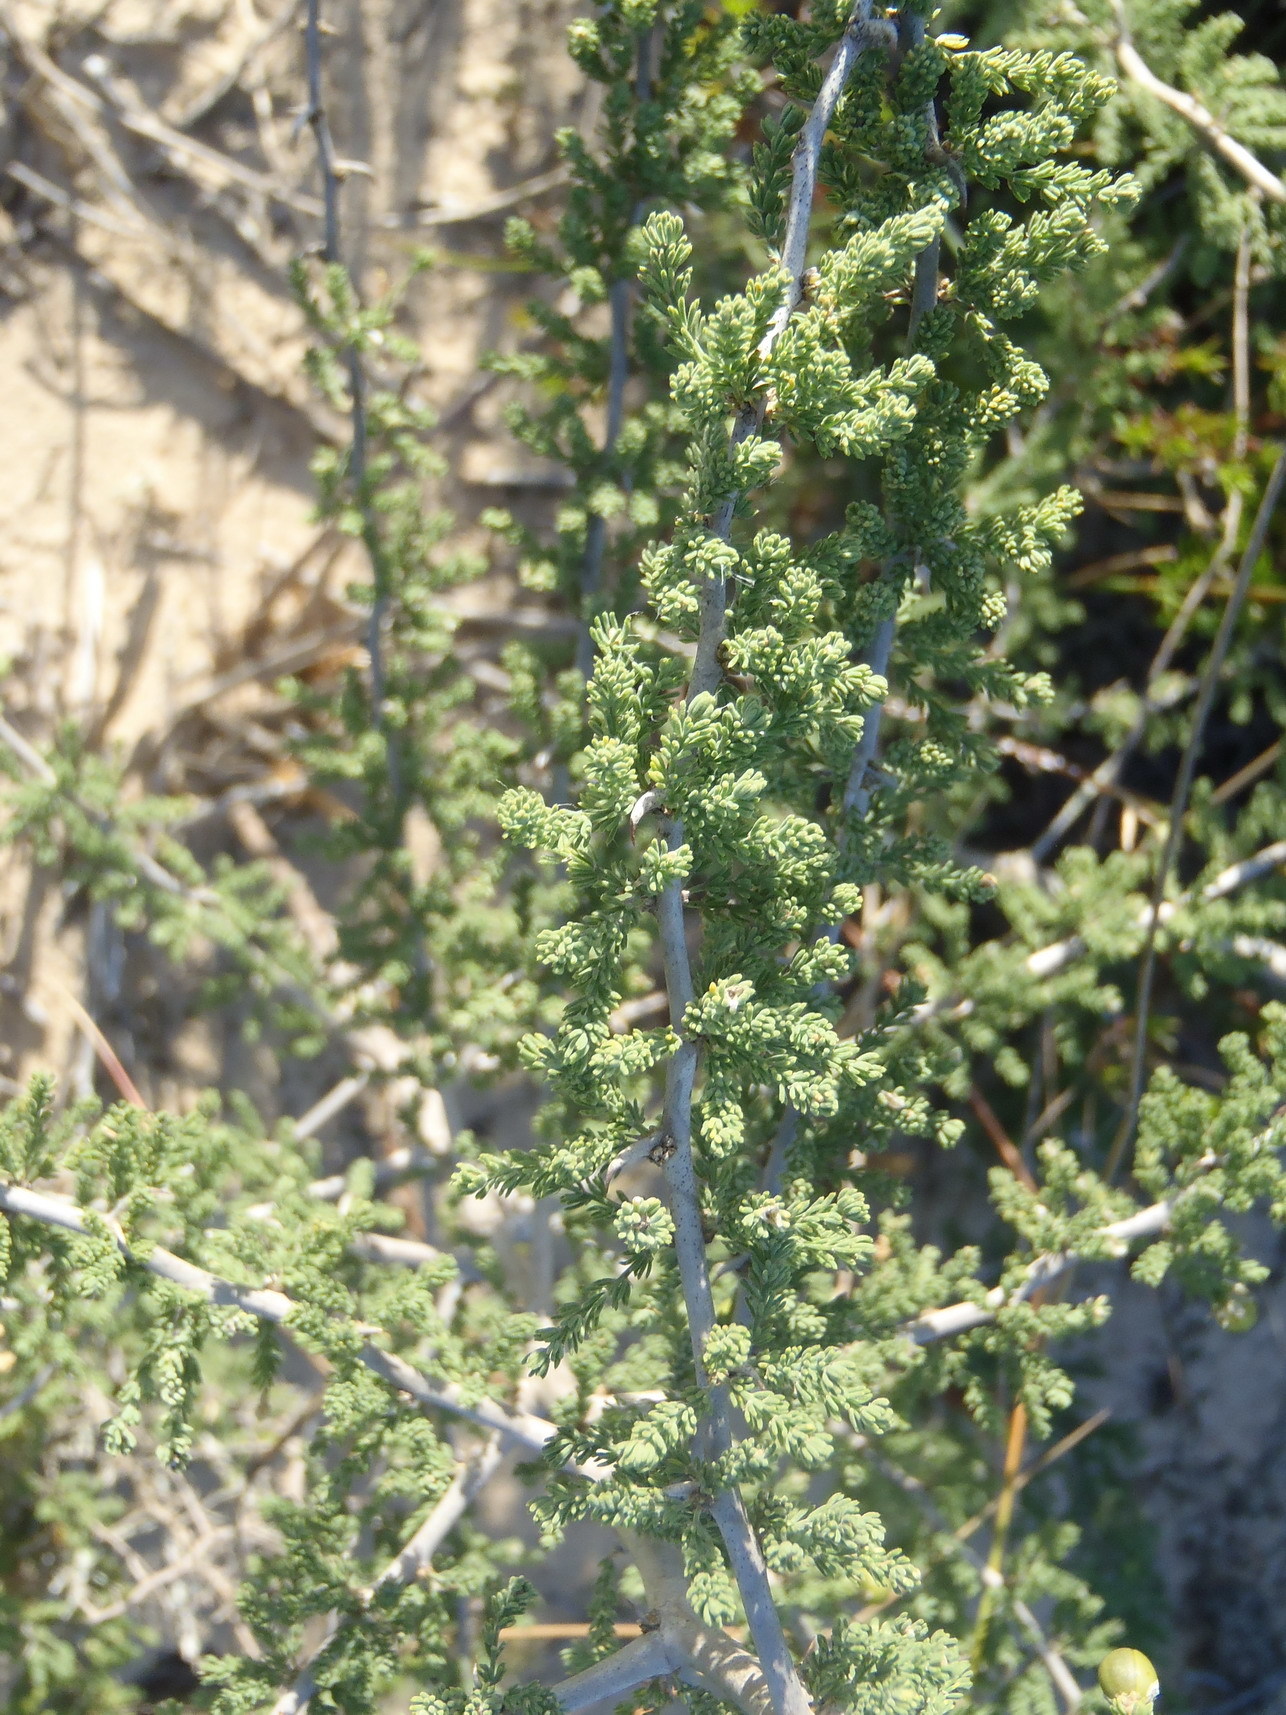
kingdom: Plantae
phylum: Tracheophyta
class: Liliopsida
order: Asparagales
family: Asparagaceae
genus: Asparagus
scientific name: Asparagus capensis
